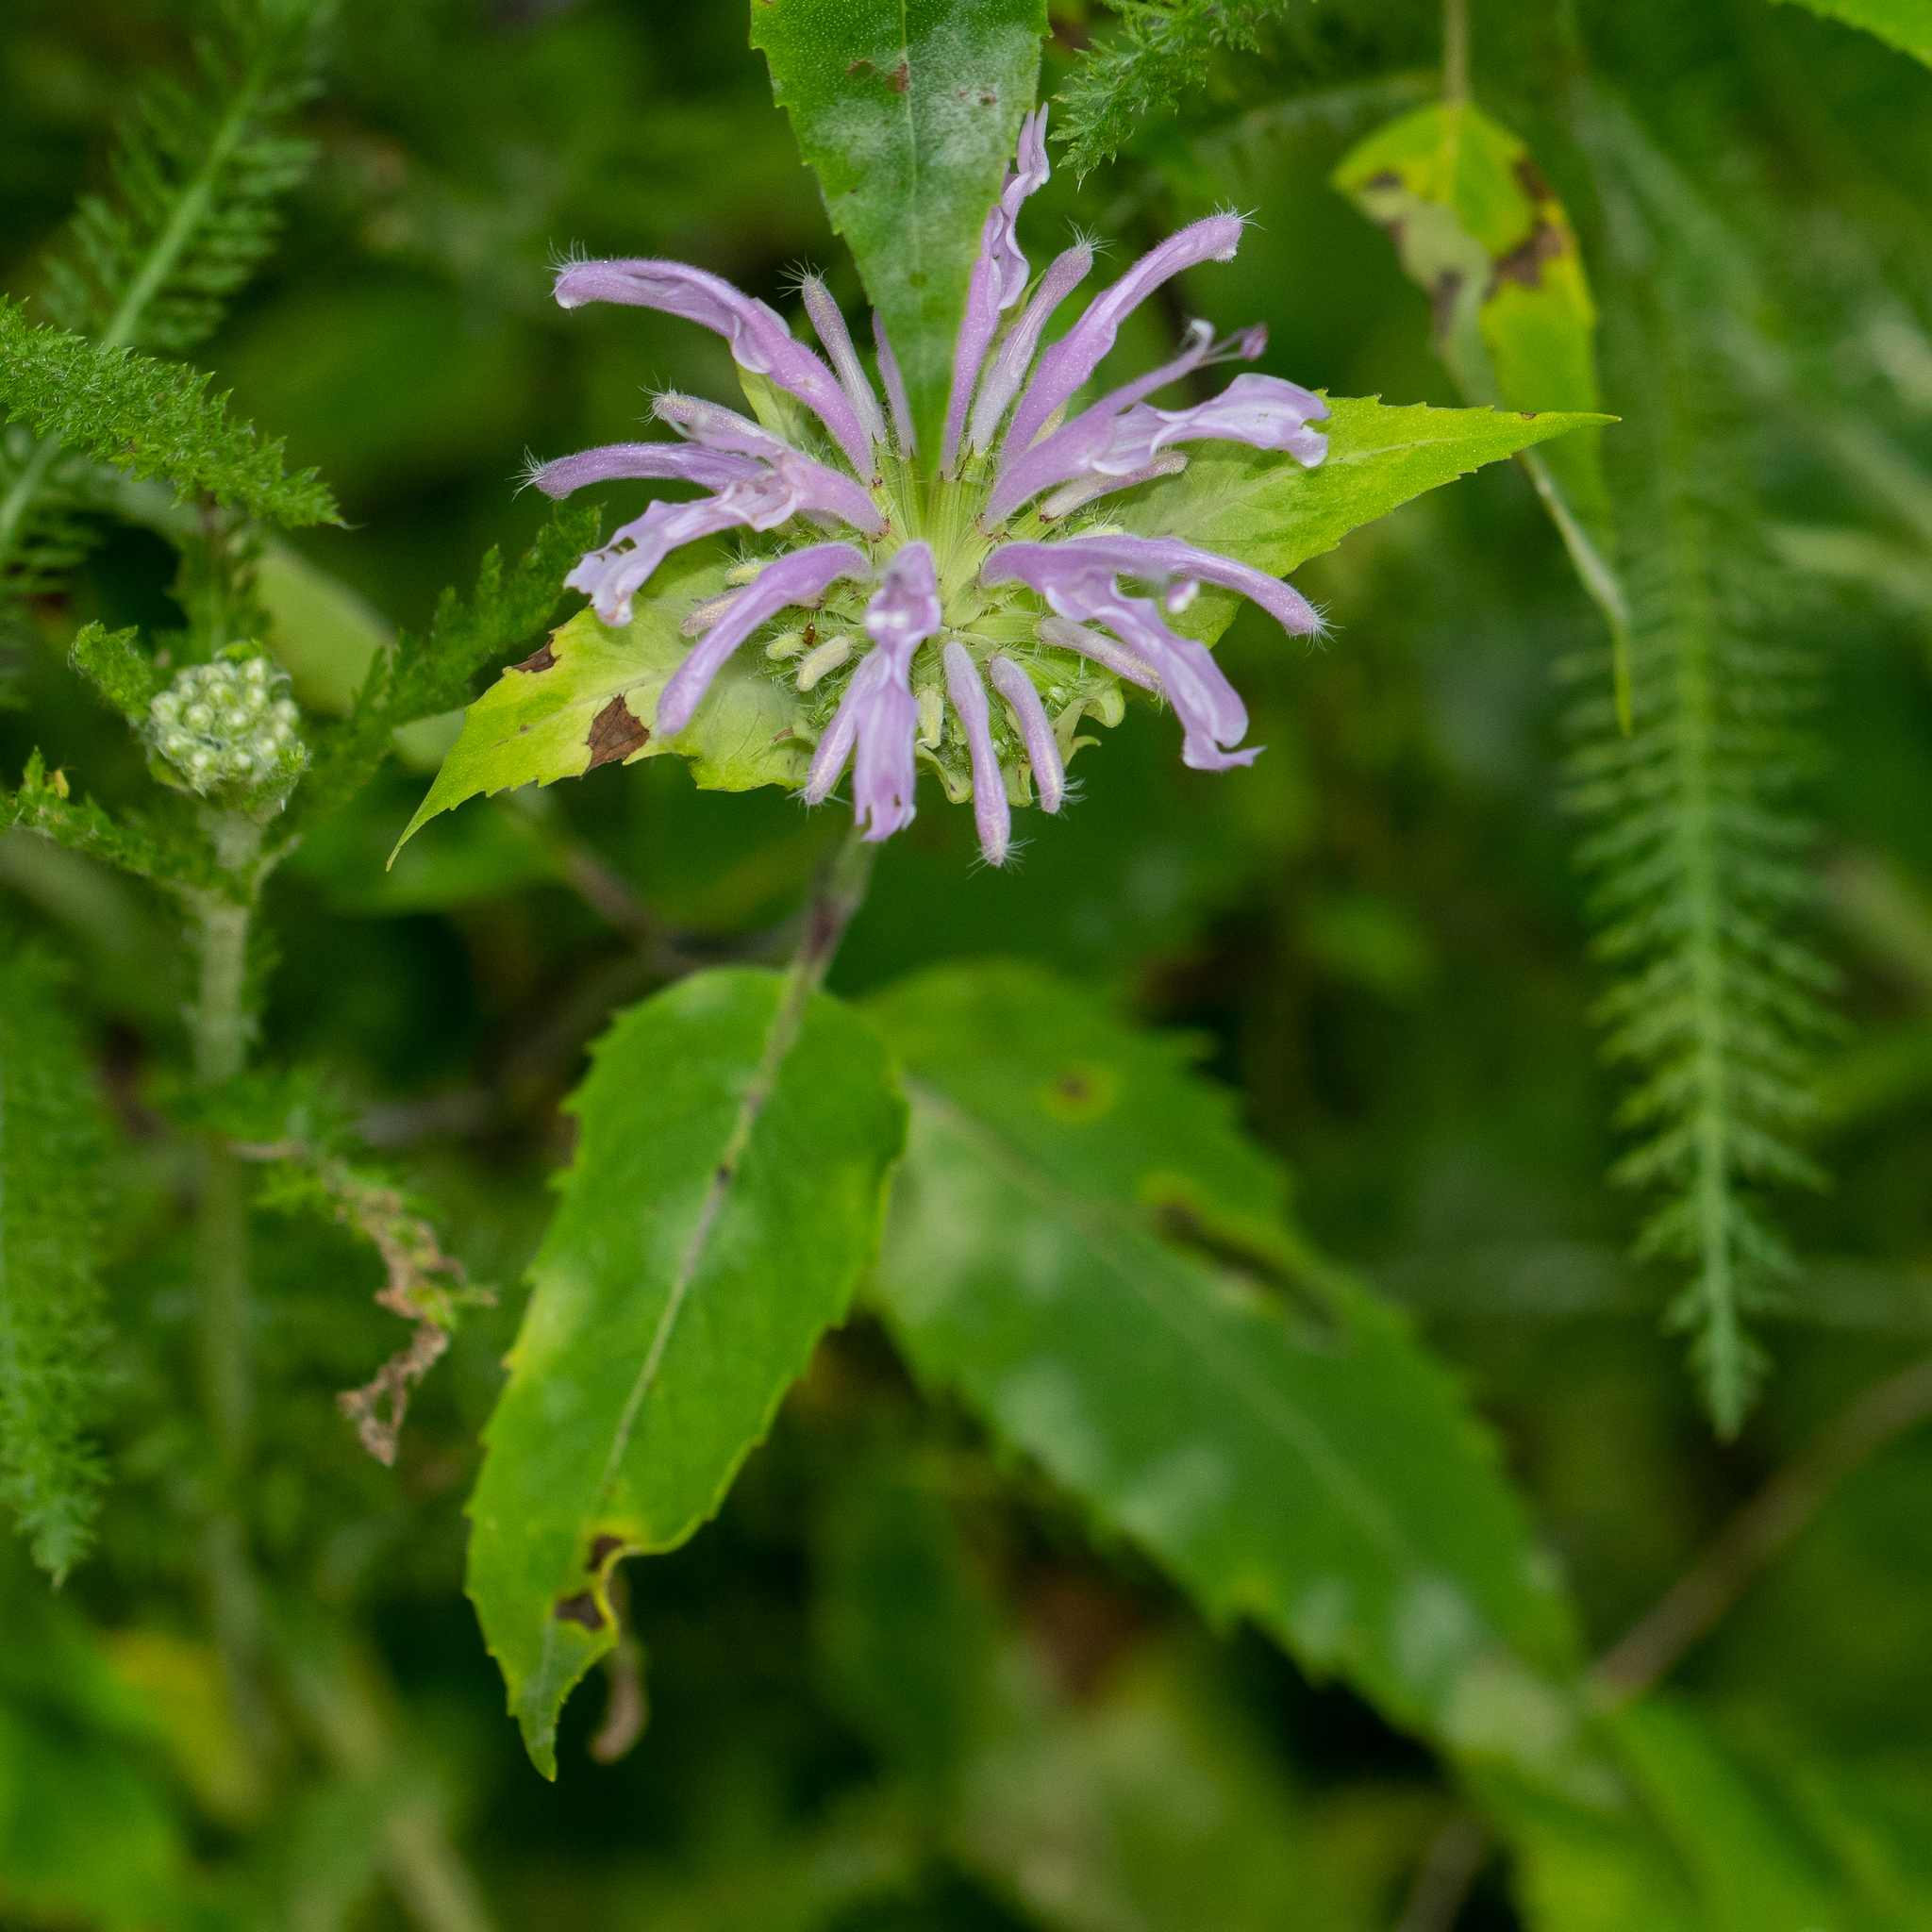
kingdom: Plantae
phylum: Tracheophyta
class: Magnoliopsida
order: Lamiales
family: Lamiaceae
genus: Monarda
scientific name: Monarda fistulosa
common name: Purple beebalm
